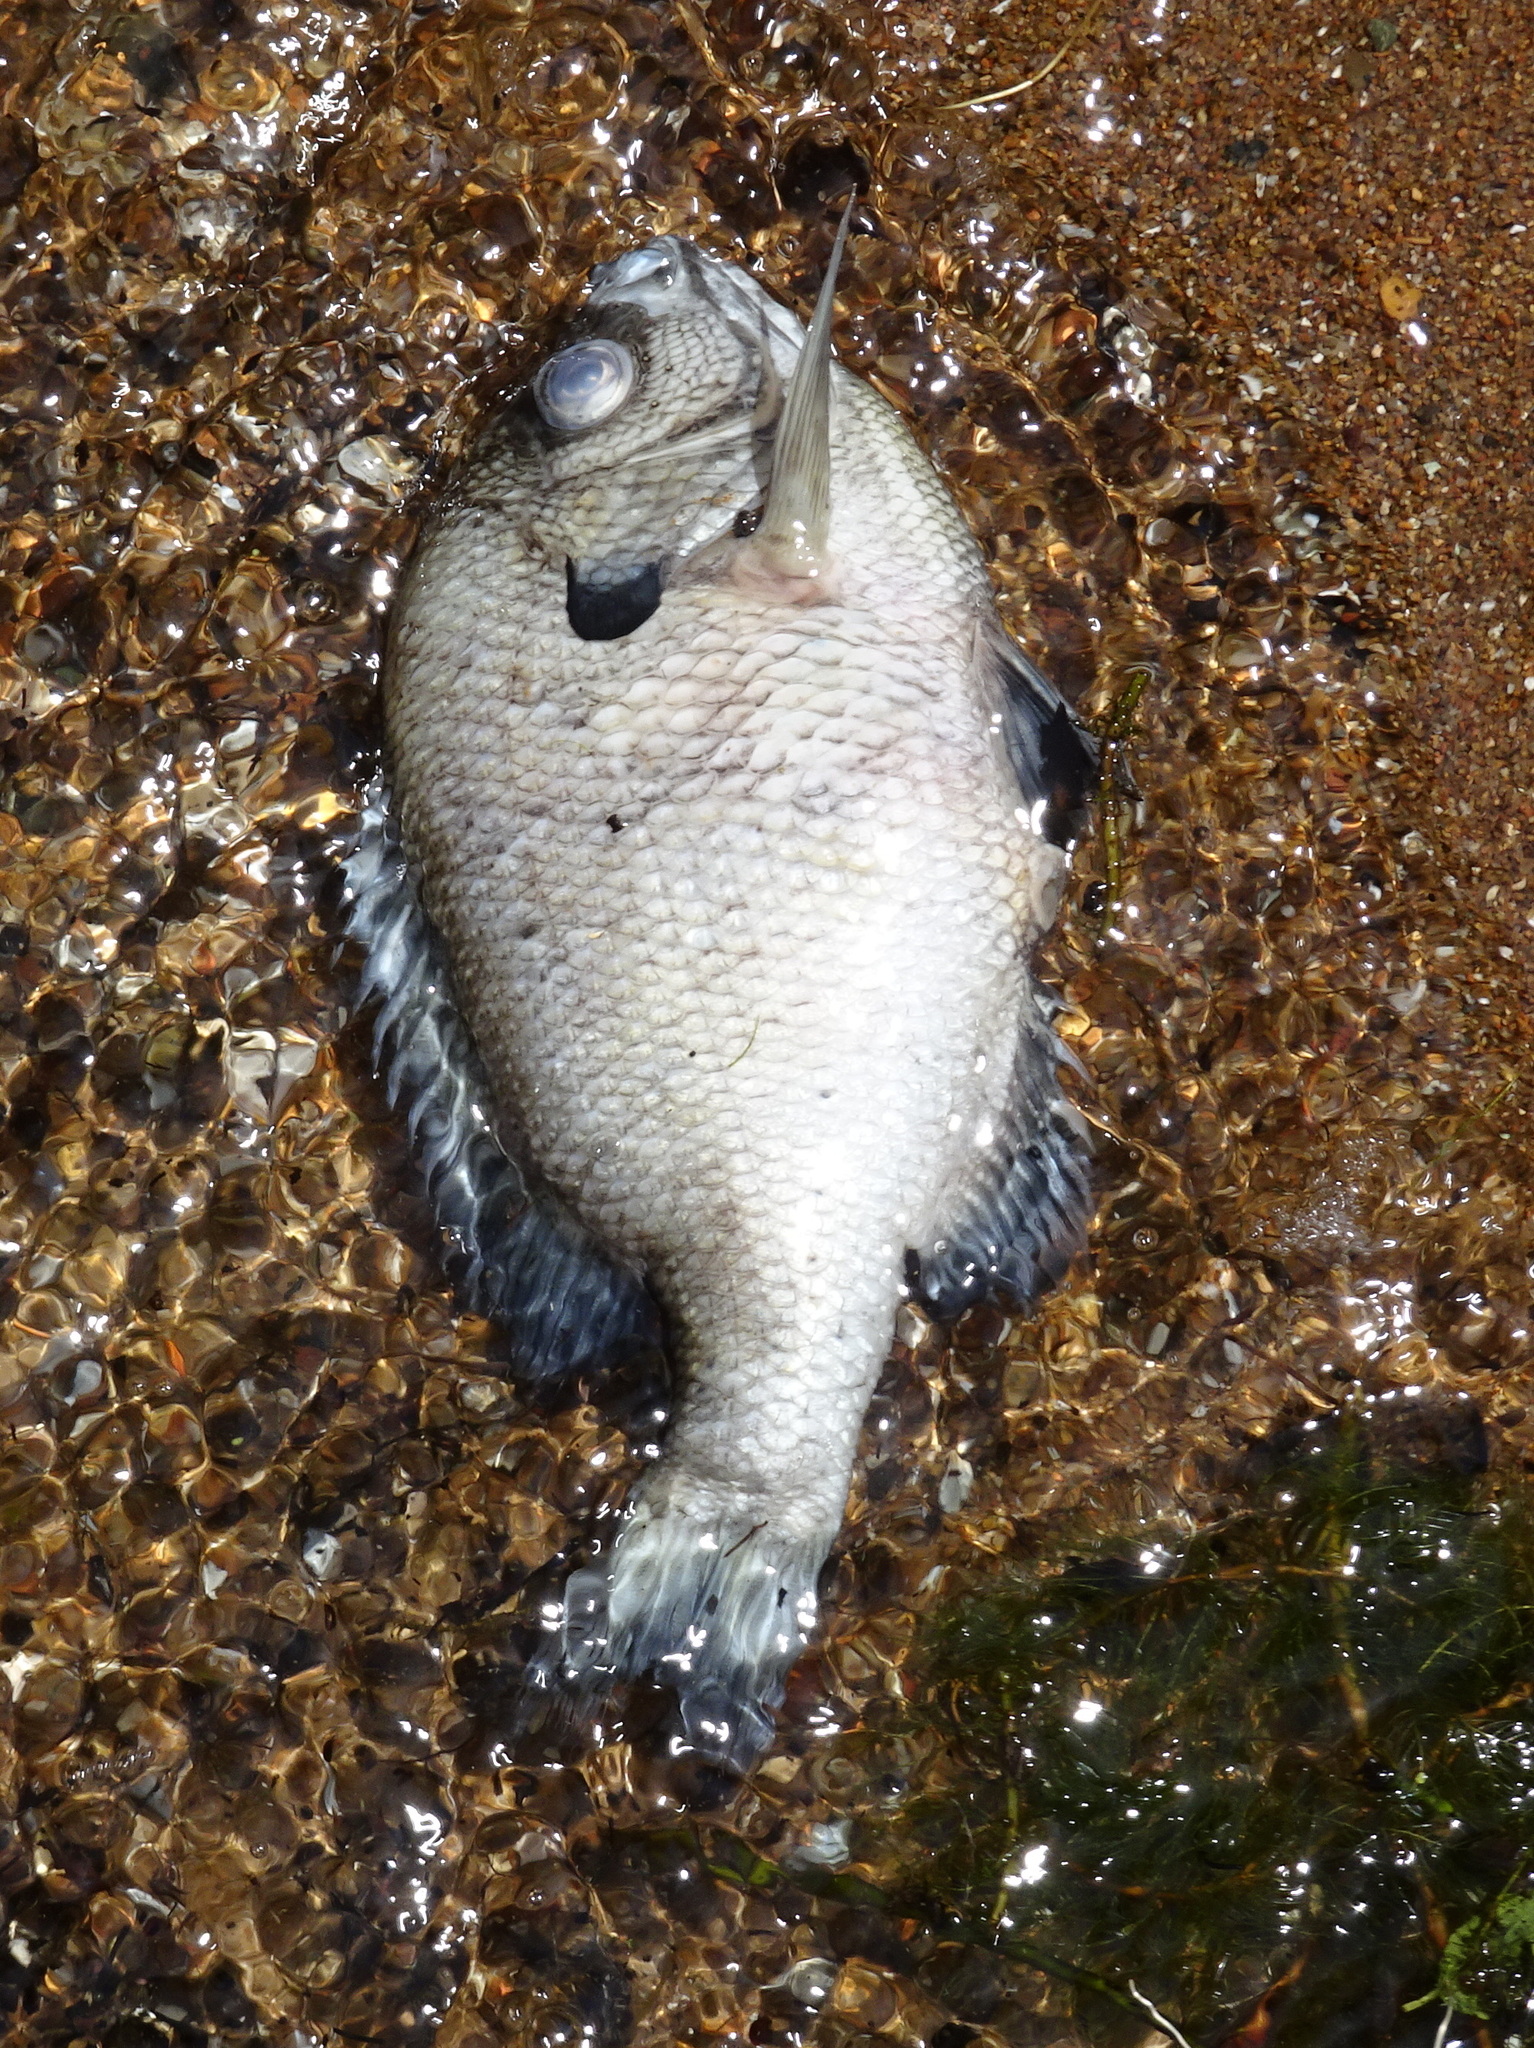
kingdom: Animalia
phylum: Chordata
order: Perciformes
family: Centrarchidae
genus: Lepomis
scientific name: Lepomis macrochirus
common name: Bluegill
